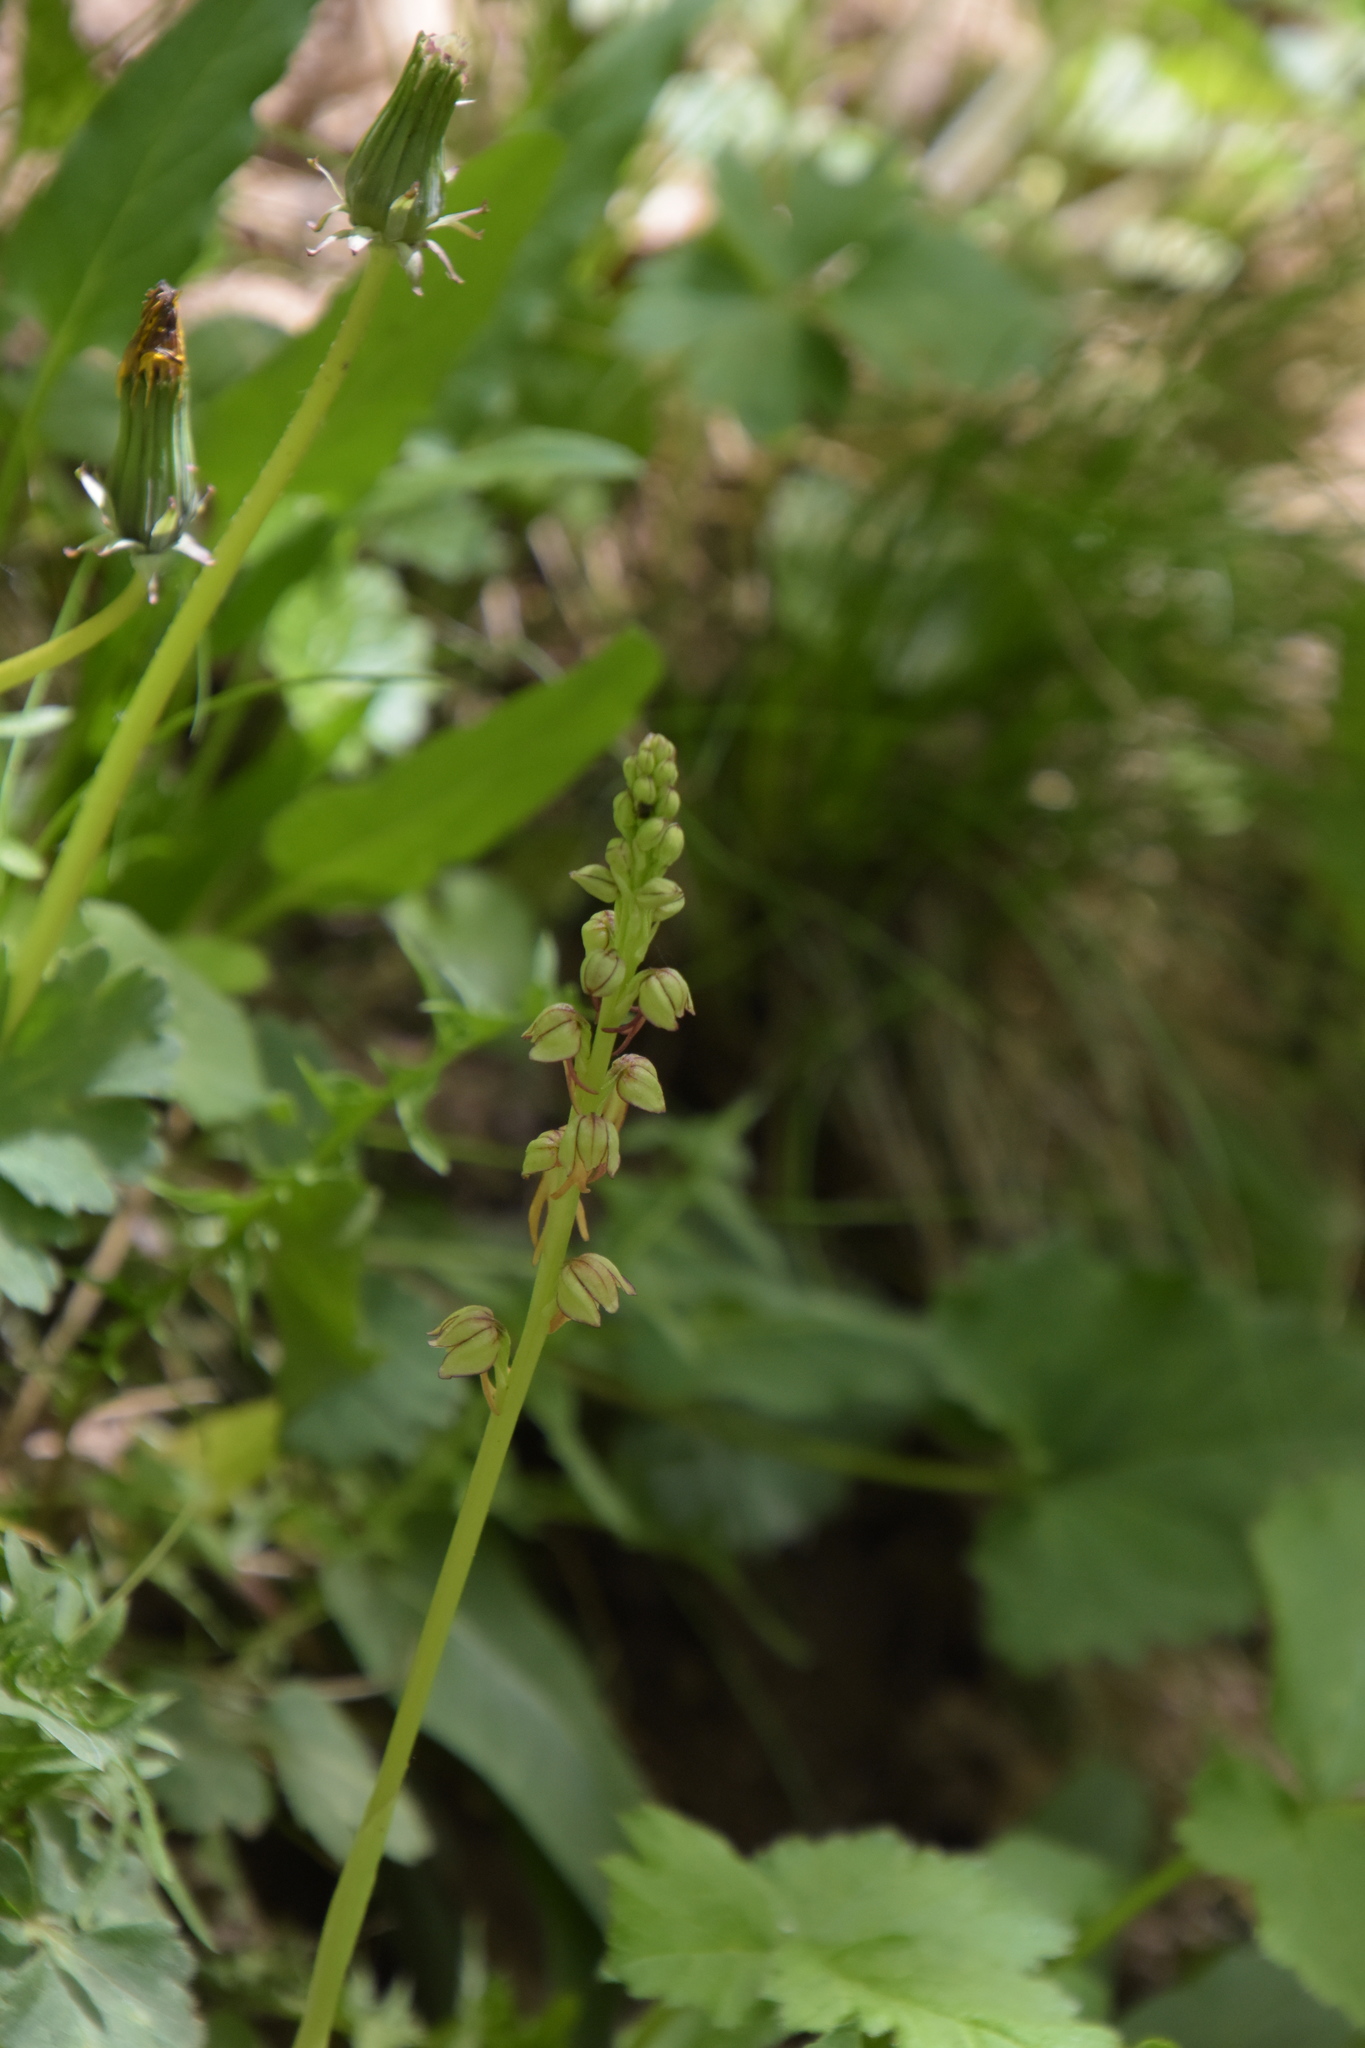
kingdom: Plantae
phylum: Tracheophyta
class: Liliopsida
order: Asparagales
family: Orchidaceae
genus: Orchis
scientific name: Orchis anthropophora
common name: Man orchid
